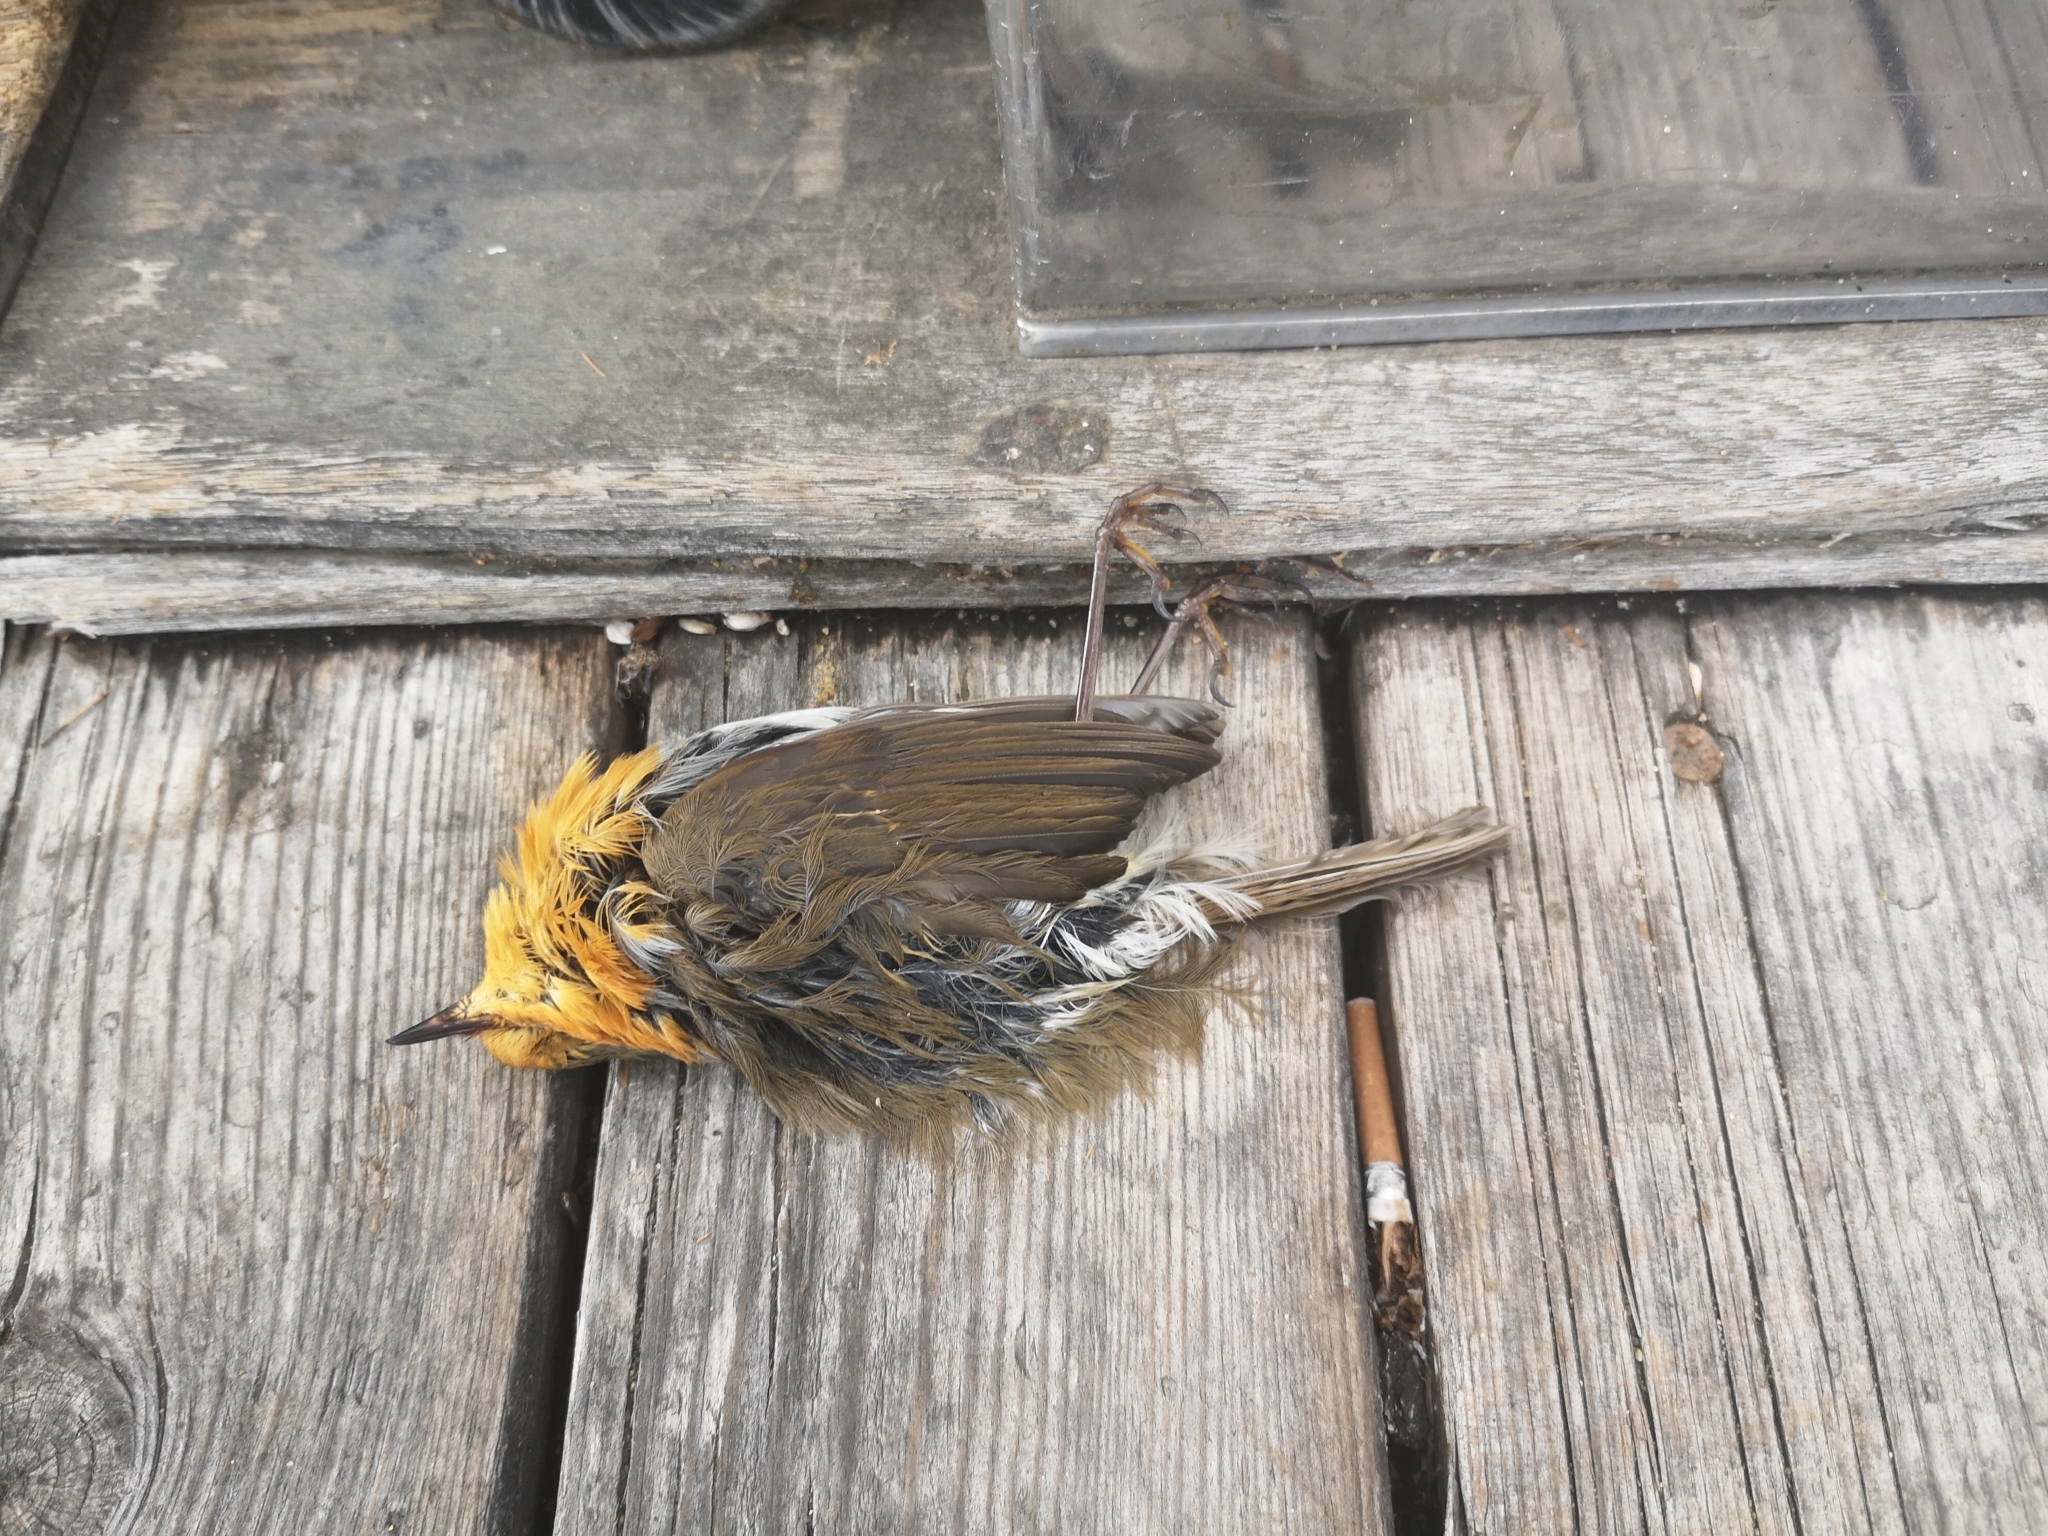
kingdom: Animalia
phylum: Chordata
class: Aves
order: Passeriformes
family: Muscicapidae
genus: Erithacus
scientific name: Erithacus rubecula
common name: European robin
